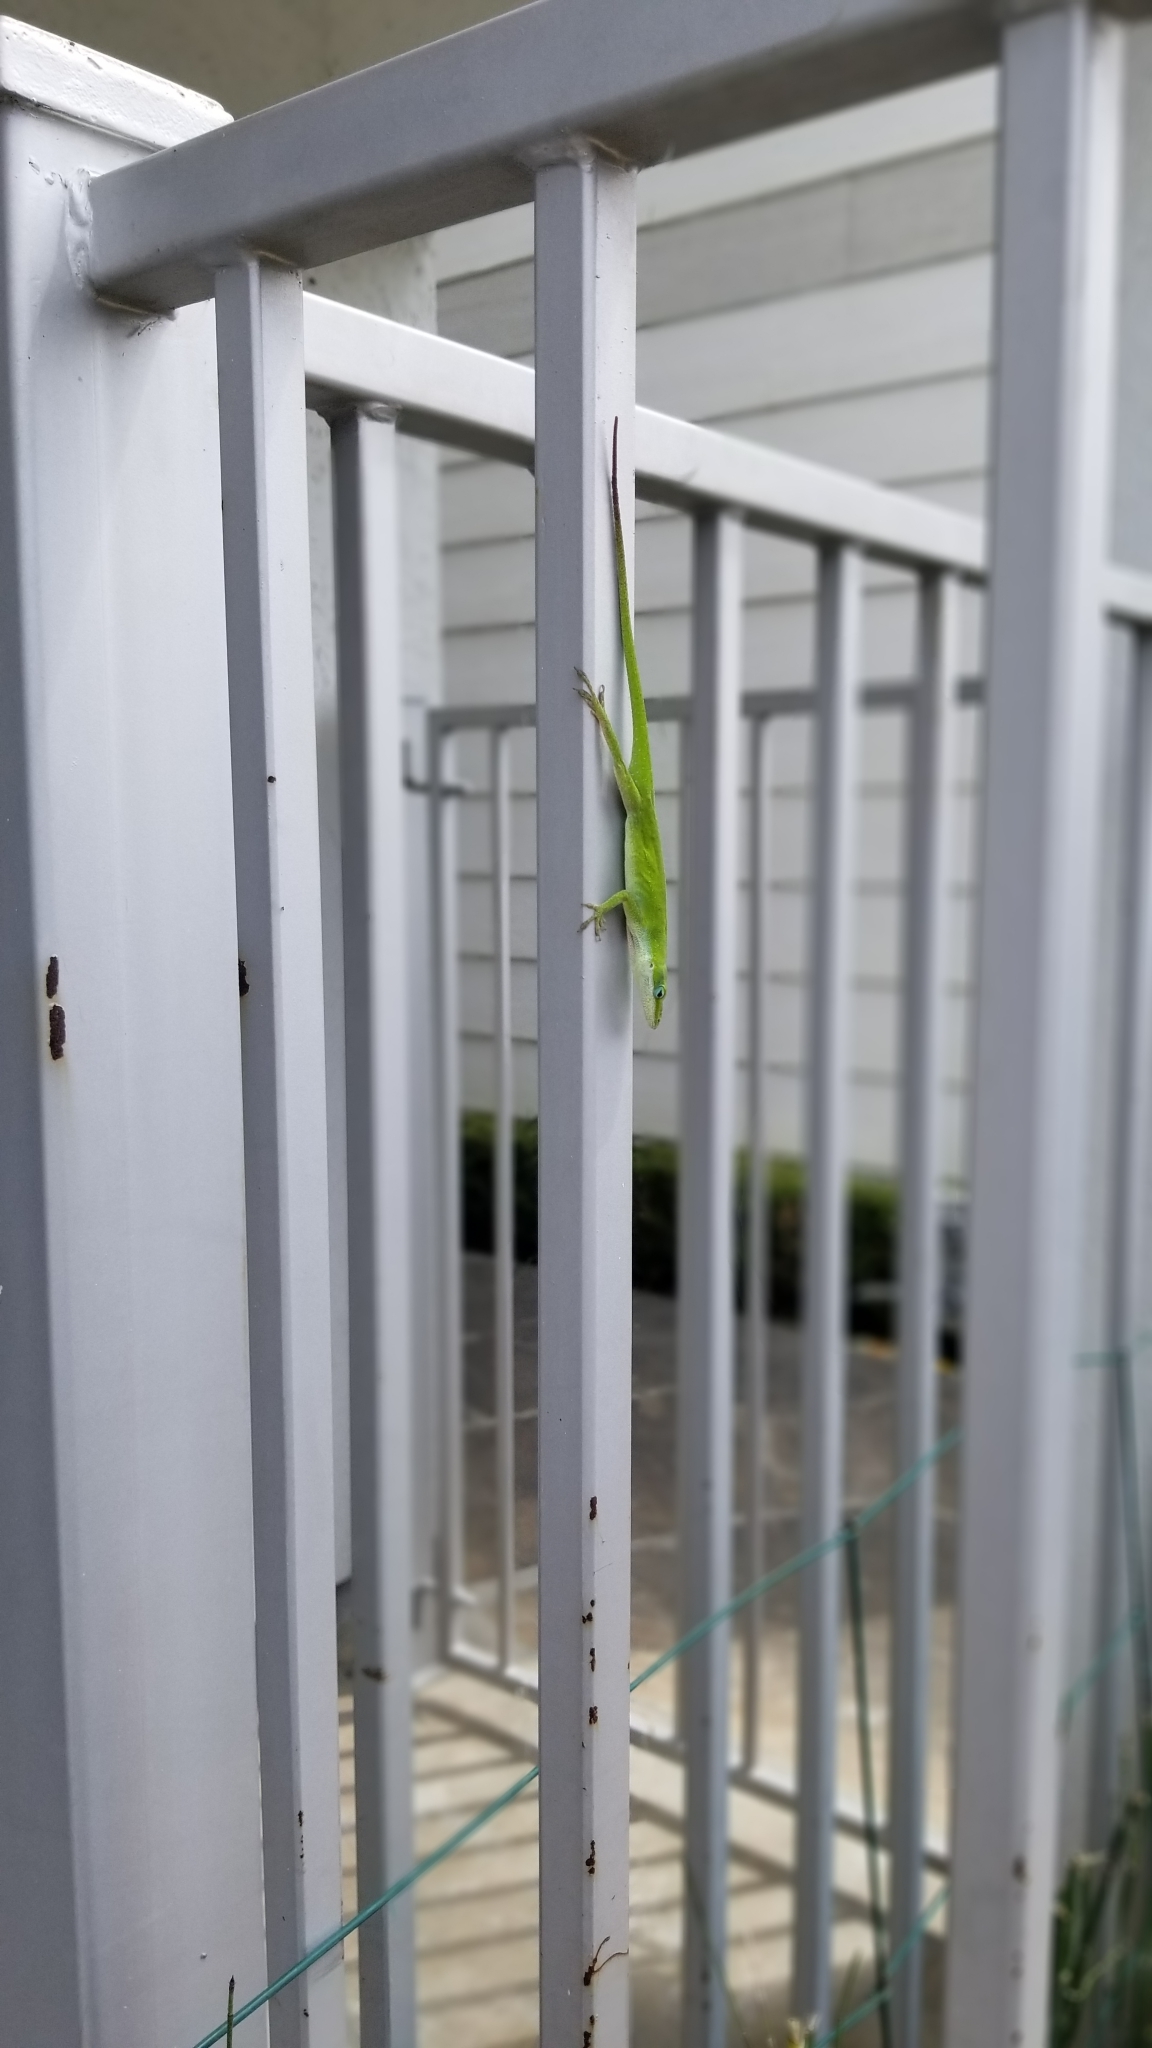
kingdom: Animalia
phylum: Chordata
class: Squamata
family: Dactyloidae
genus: Anolis
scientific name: Anolis carolinensis
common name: Green anole
